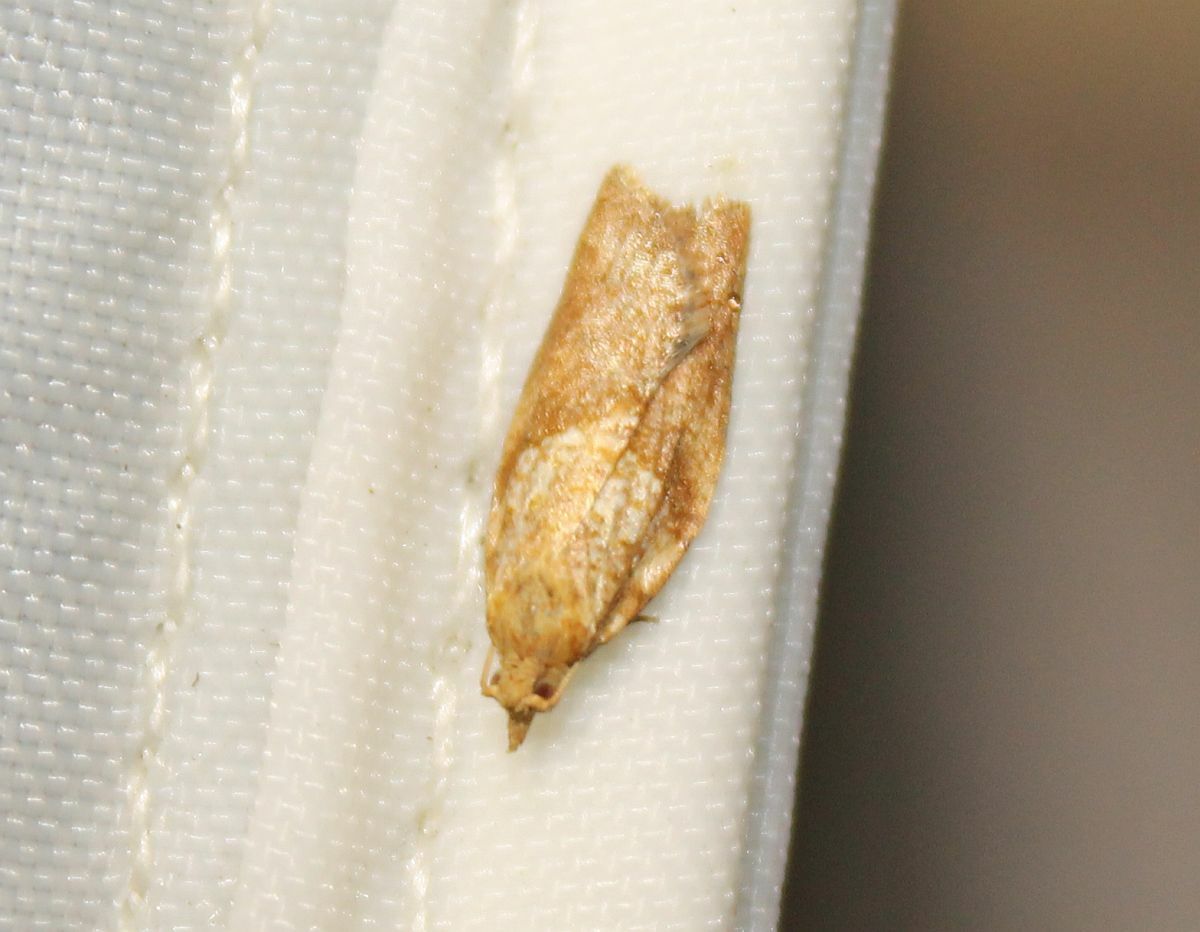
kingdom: Animalia
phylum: Arthropoda
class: Insecta
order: Lepidoptera
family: Tortricidae
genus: Epiphyas
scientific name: Epiphyas postvittana
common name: Light brown apple moth
